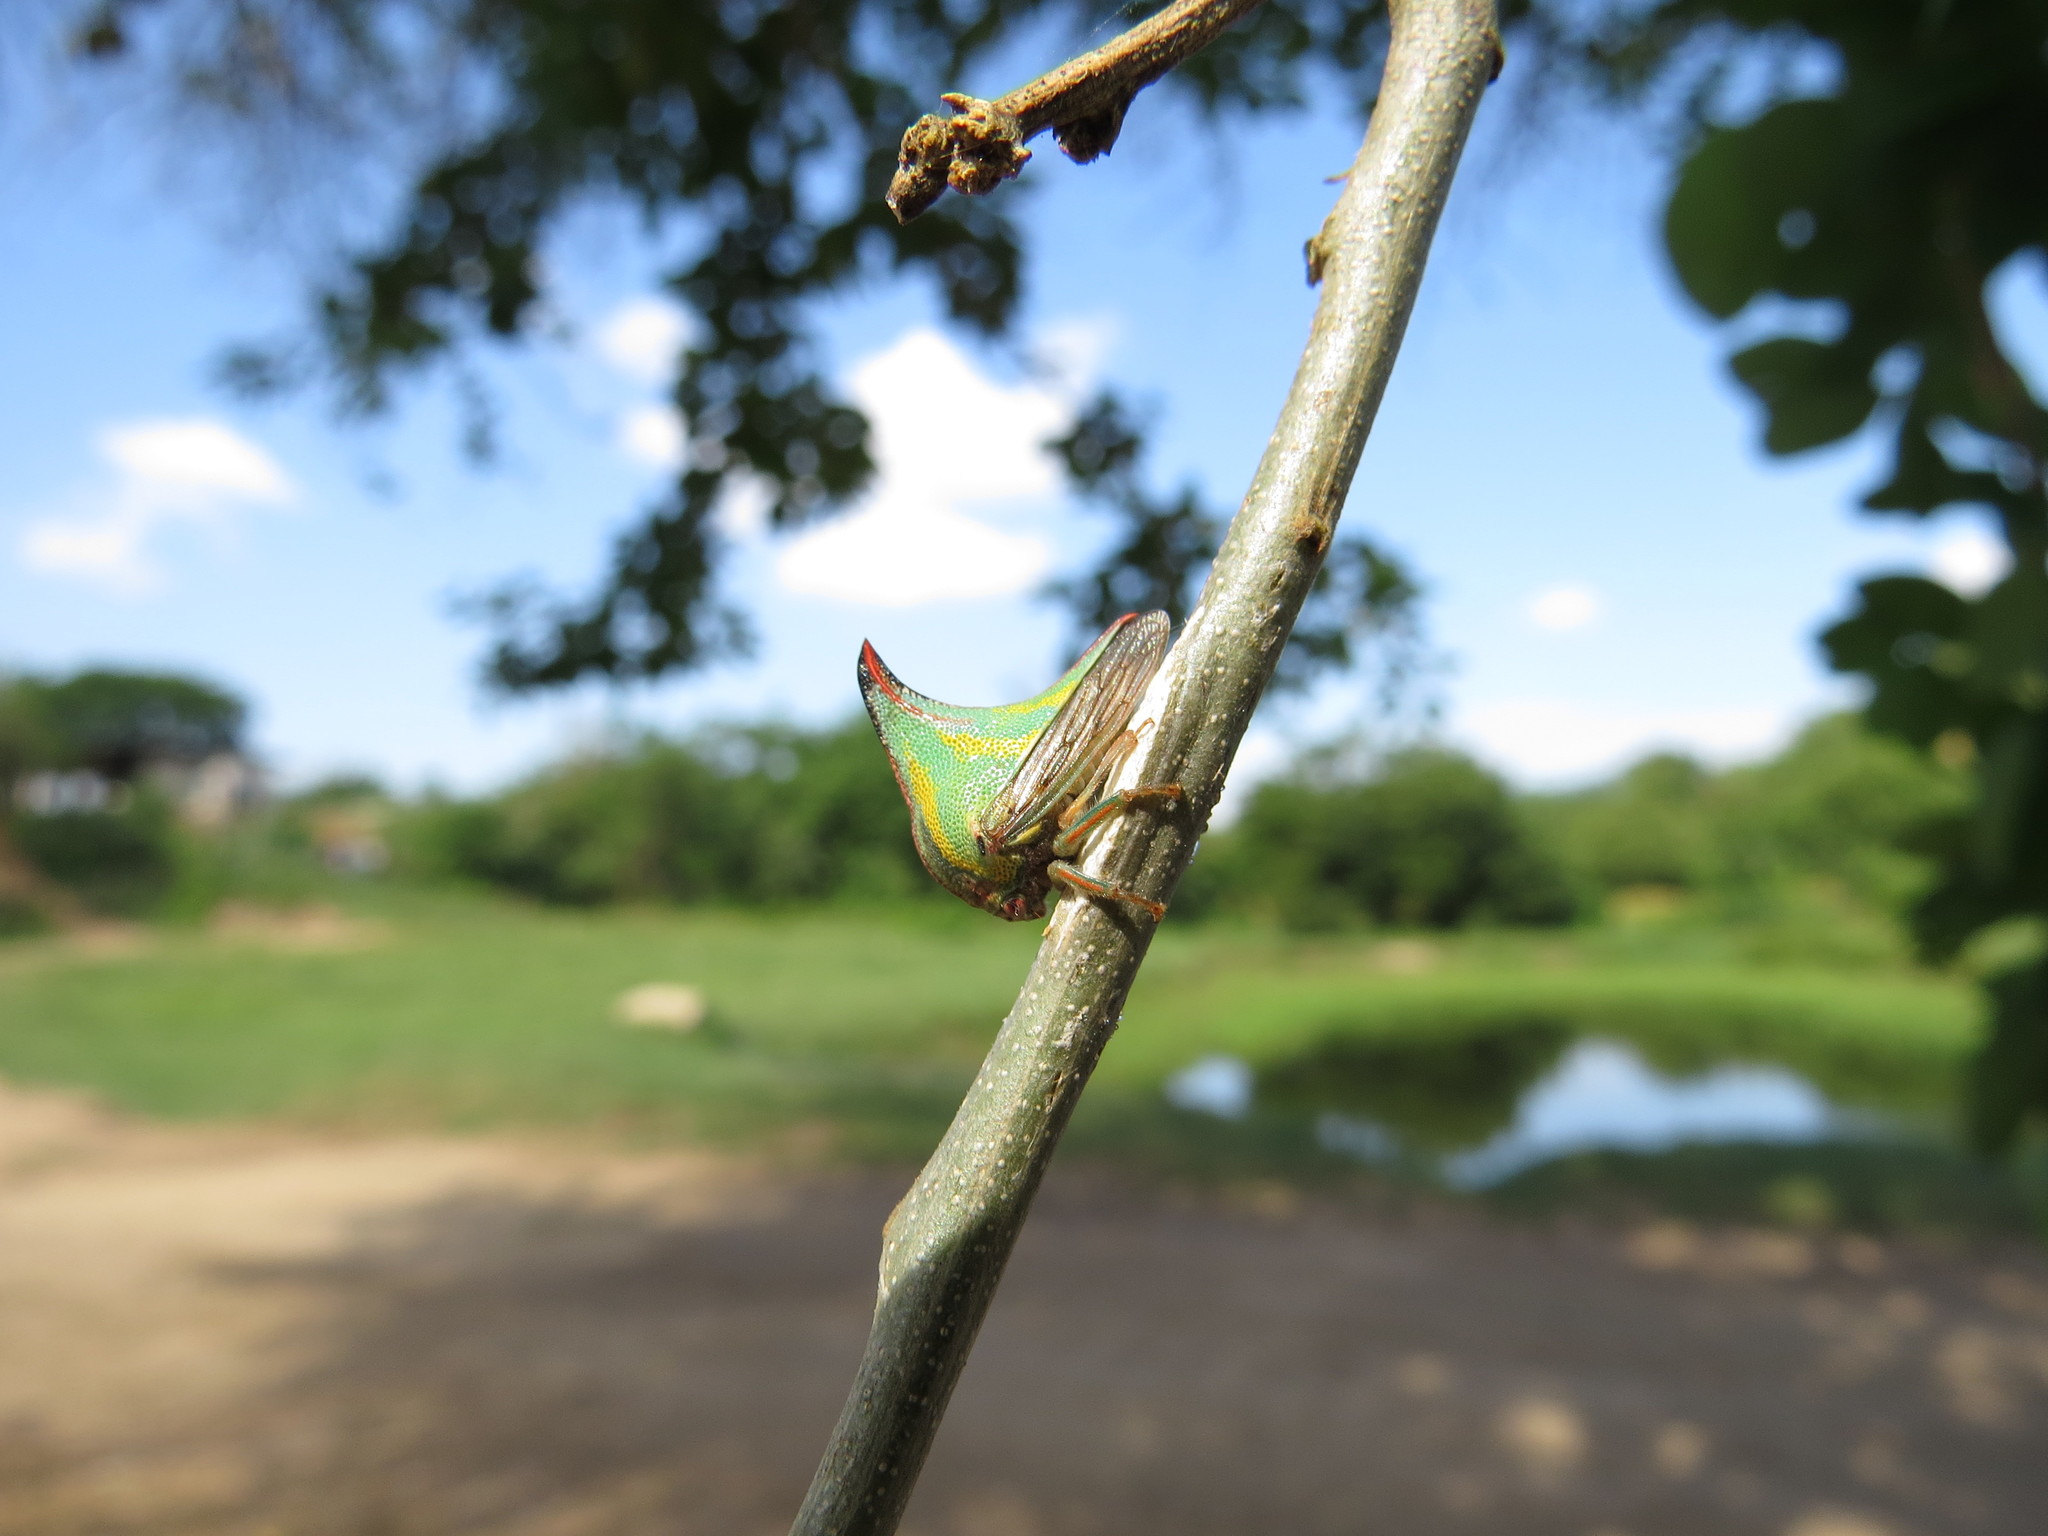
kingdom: Animalia
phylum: Arthropoda
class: Insecta
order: Hemiptera
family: Membracidae
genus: Umbonia
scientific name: Umbonia crassicornis
